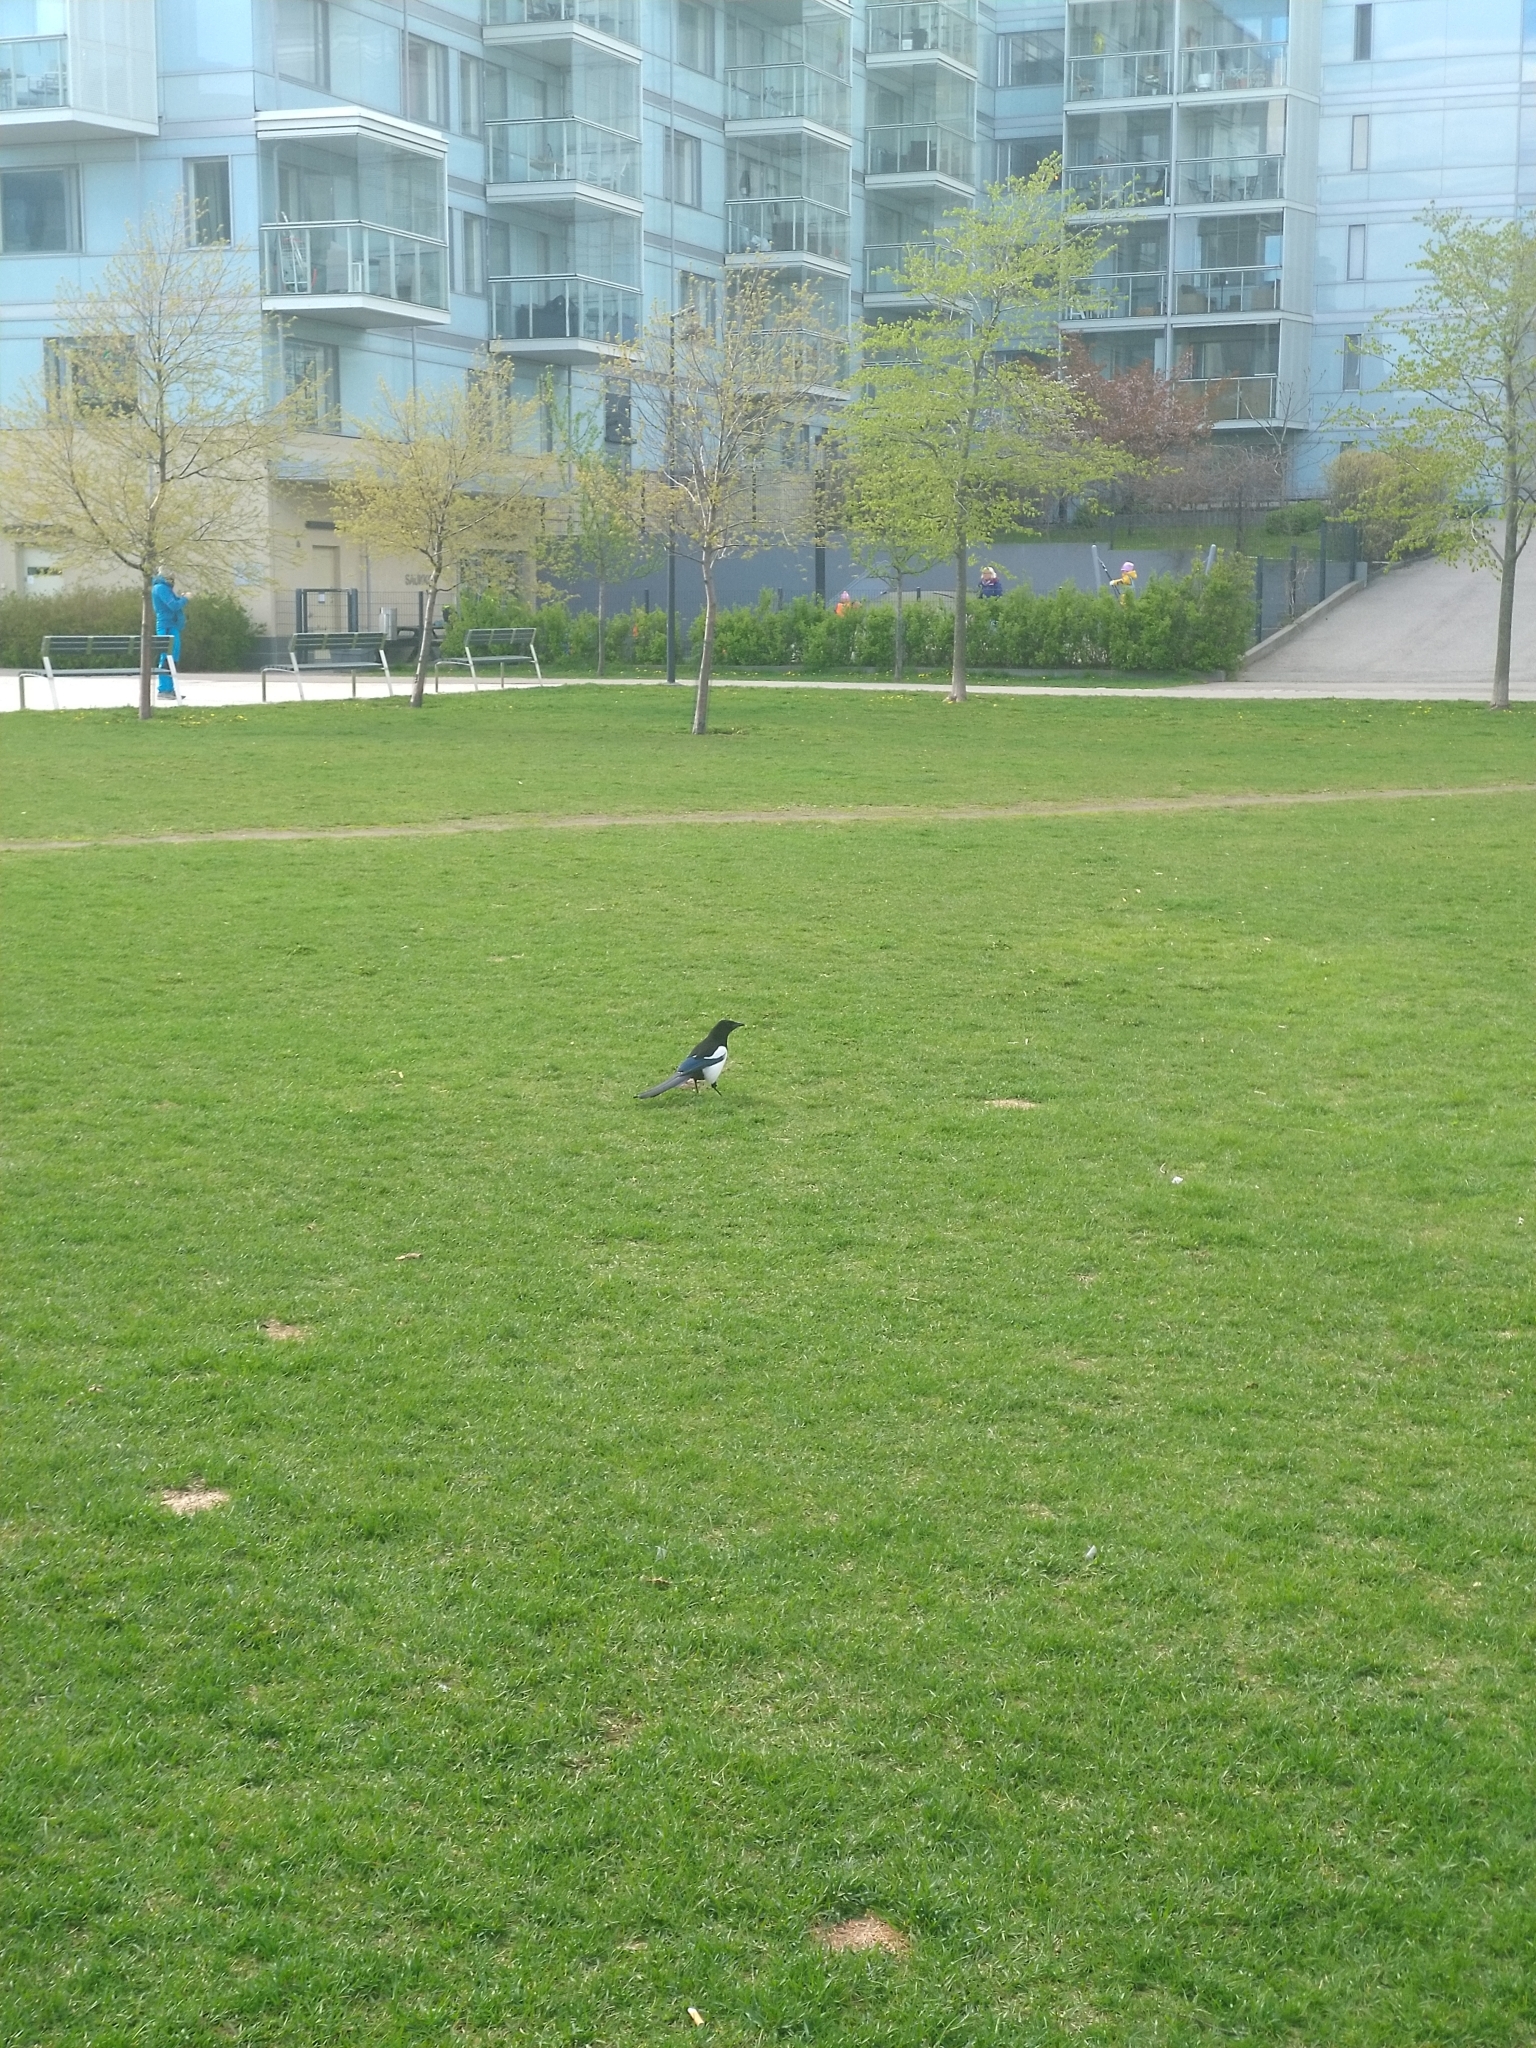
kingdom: Animalia
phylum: Chordata
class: Aves
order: Passeriformes
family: Corvidae
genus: Pica
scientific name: Pica pica
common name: Eurasian magpie
